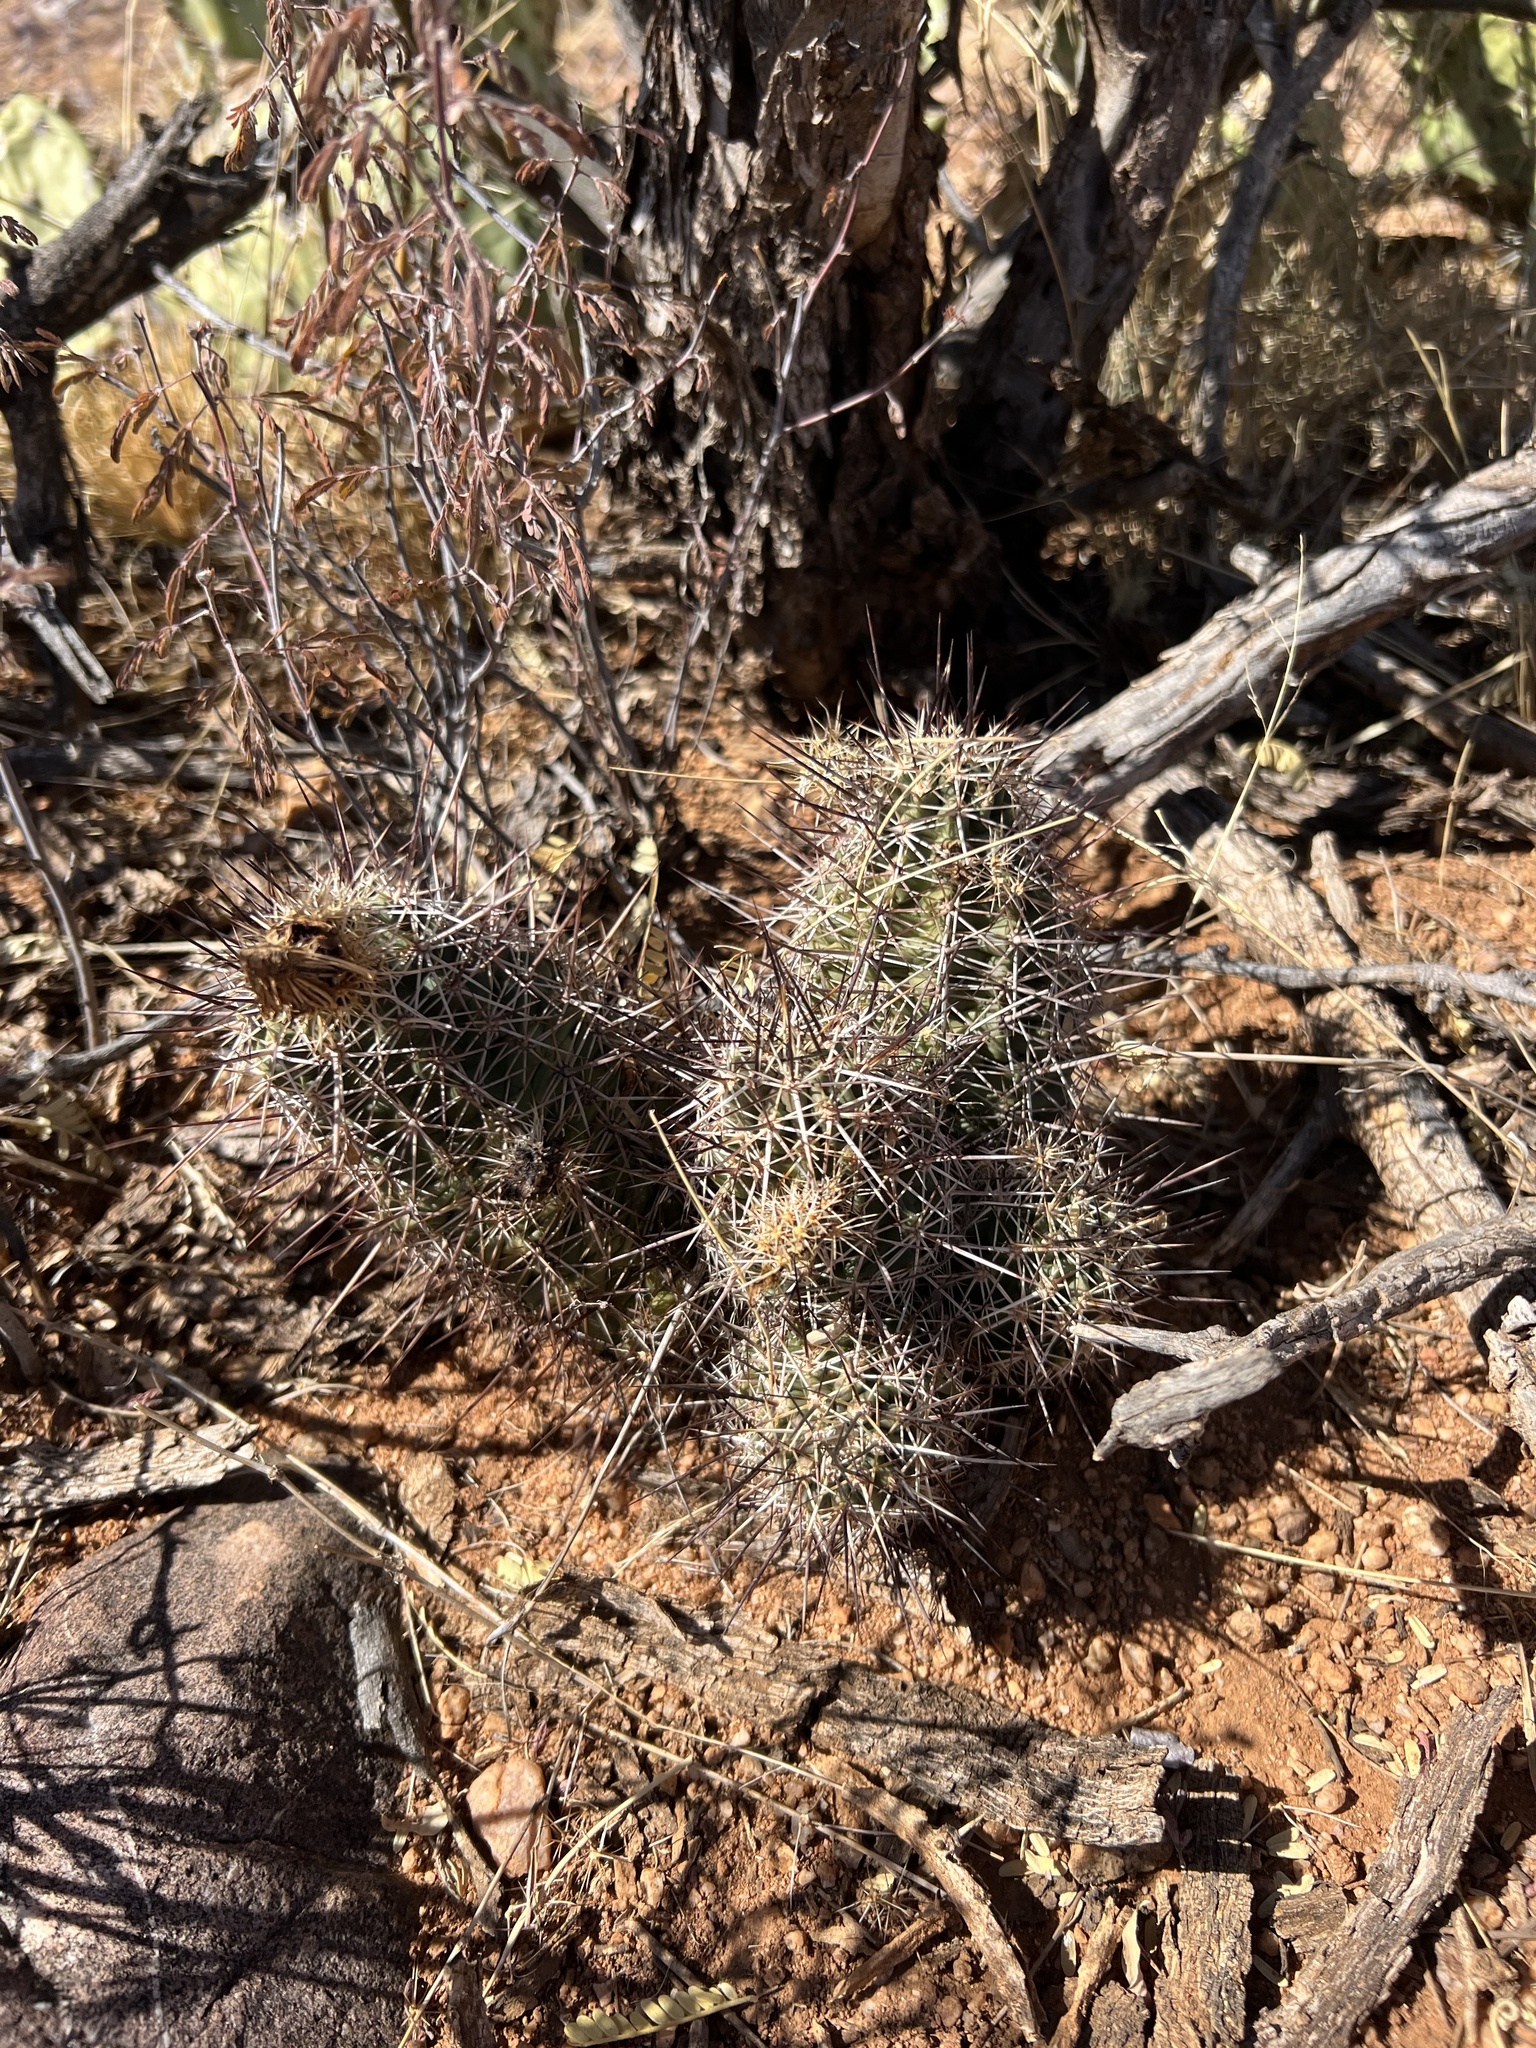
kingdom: Plantae
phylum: Tracheophyta
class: Magnoliopsida
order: Caryophyllales
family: Cactaceae
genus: Echinocereus
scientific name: Echinocereus fasciculatus
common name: Bundle hedgehog
